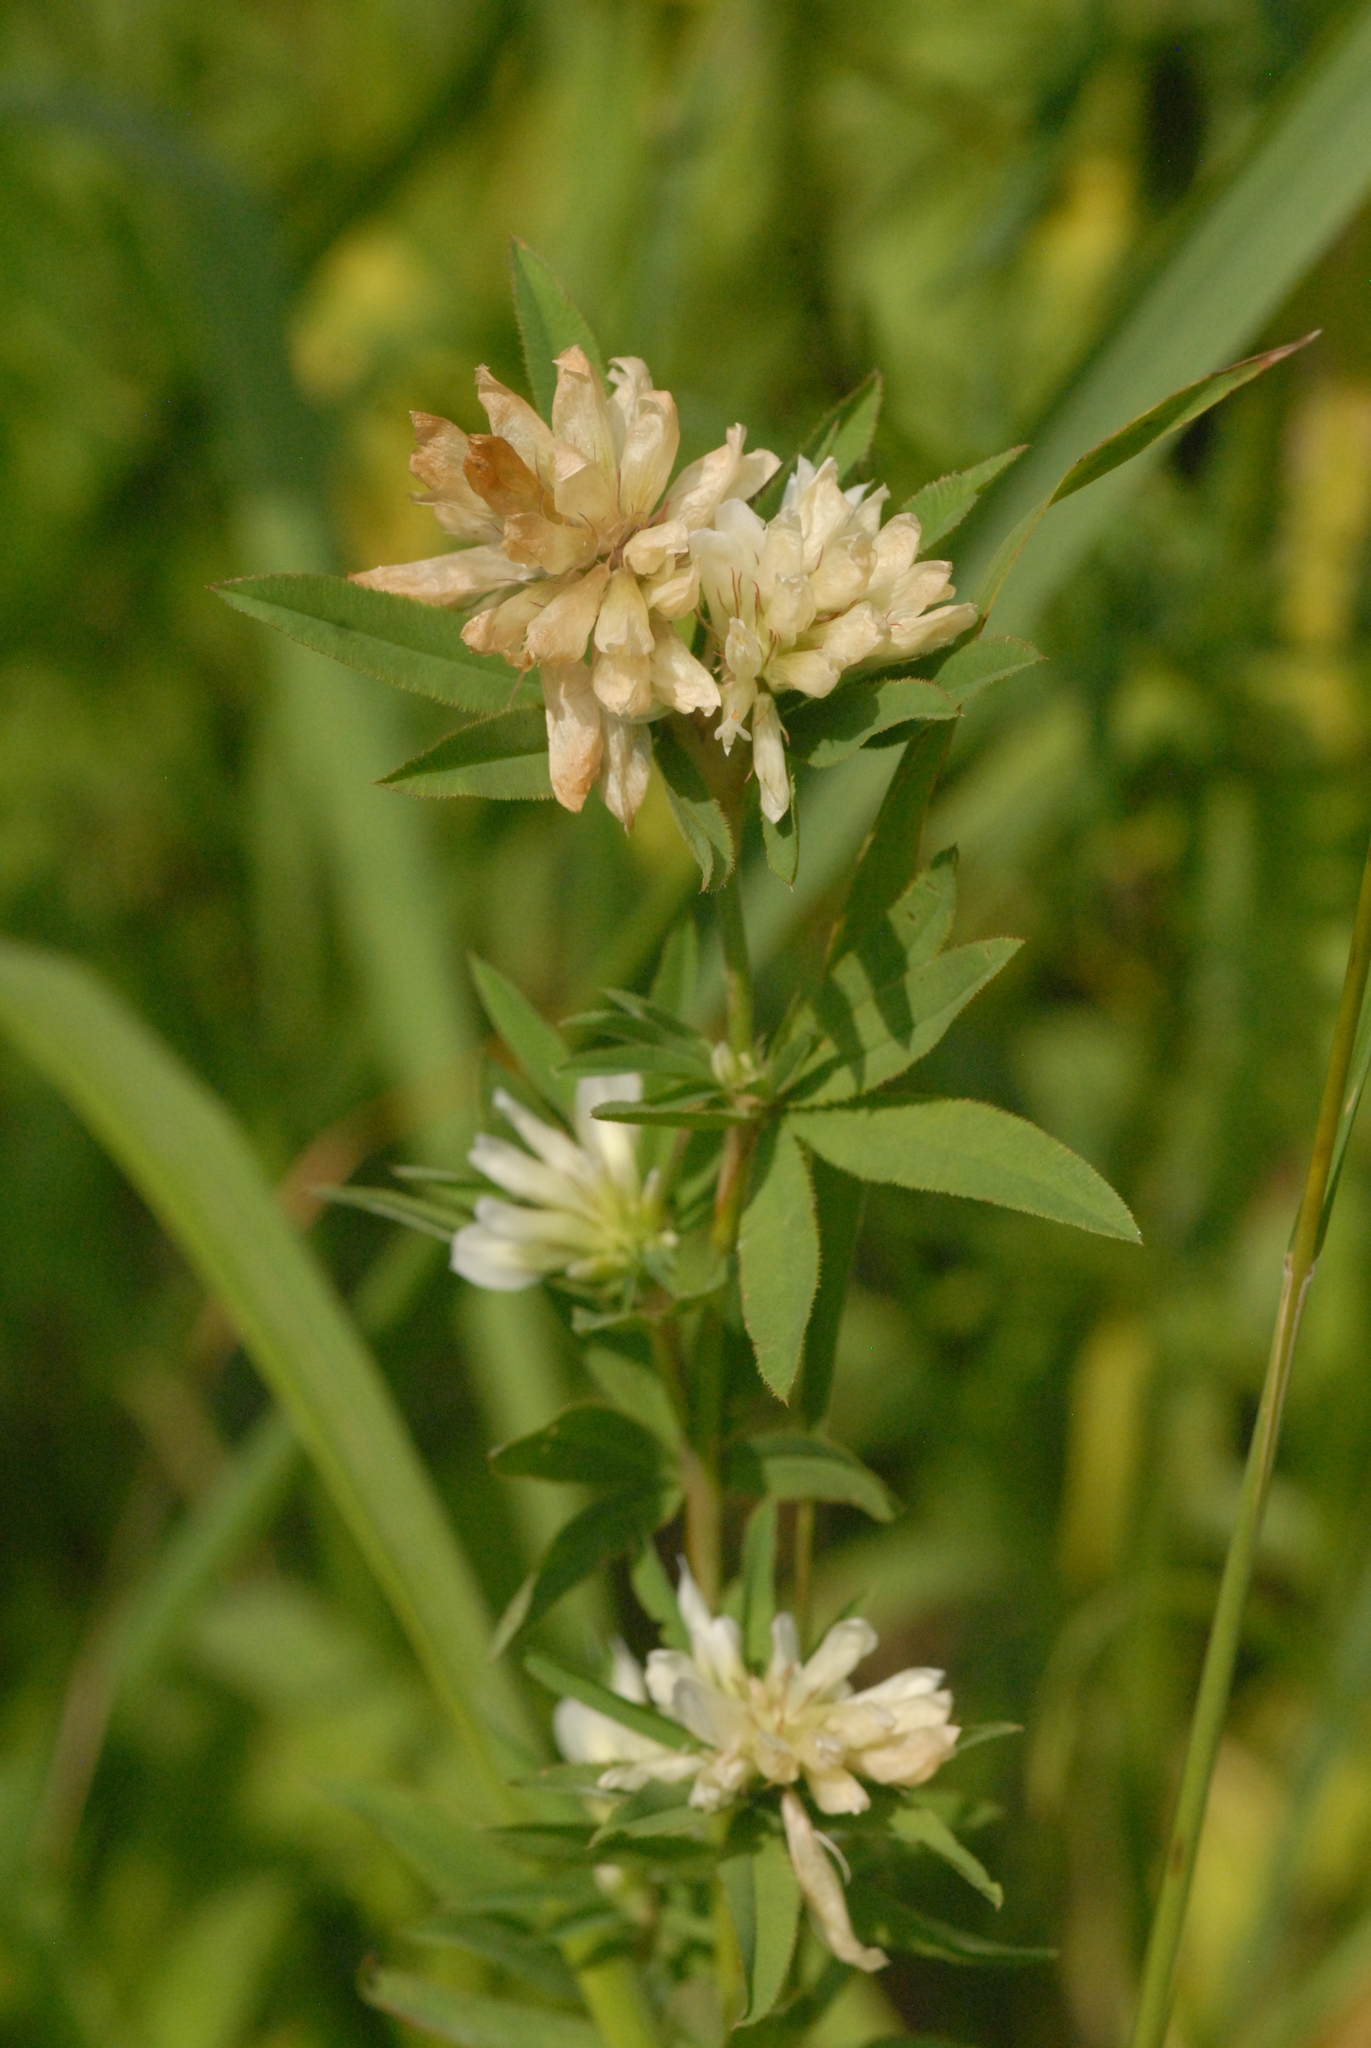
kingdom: Plantae
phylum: Tracheophyta
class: Magnoliopsida
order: Fabales
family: Fabaceae
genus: Trifolium
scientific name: Trifolium lupinaster
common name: Lupine clover
